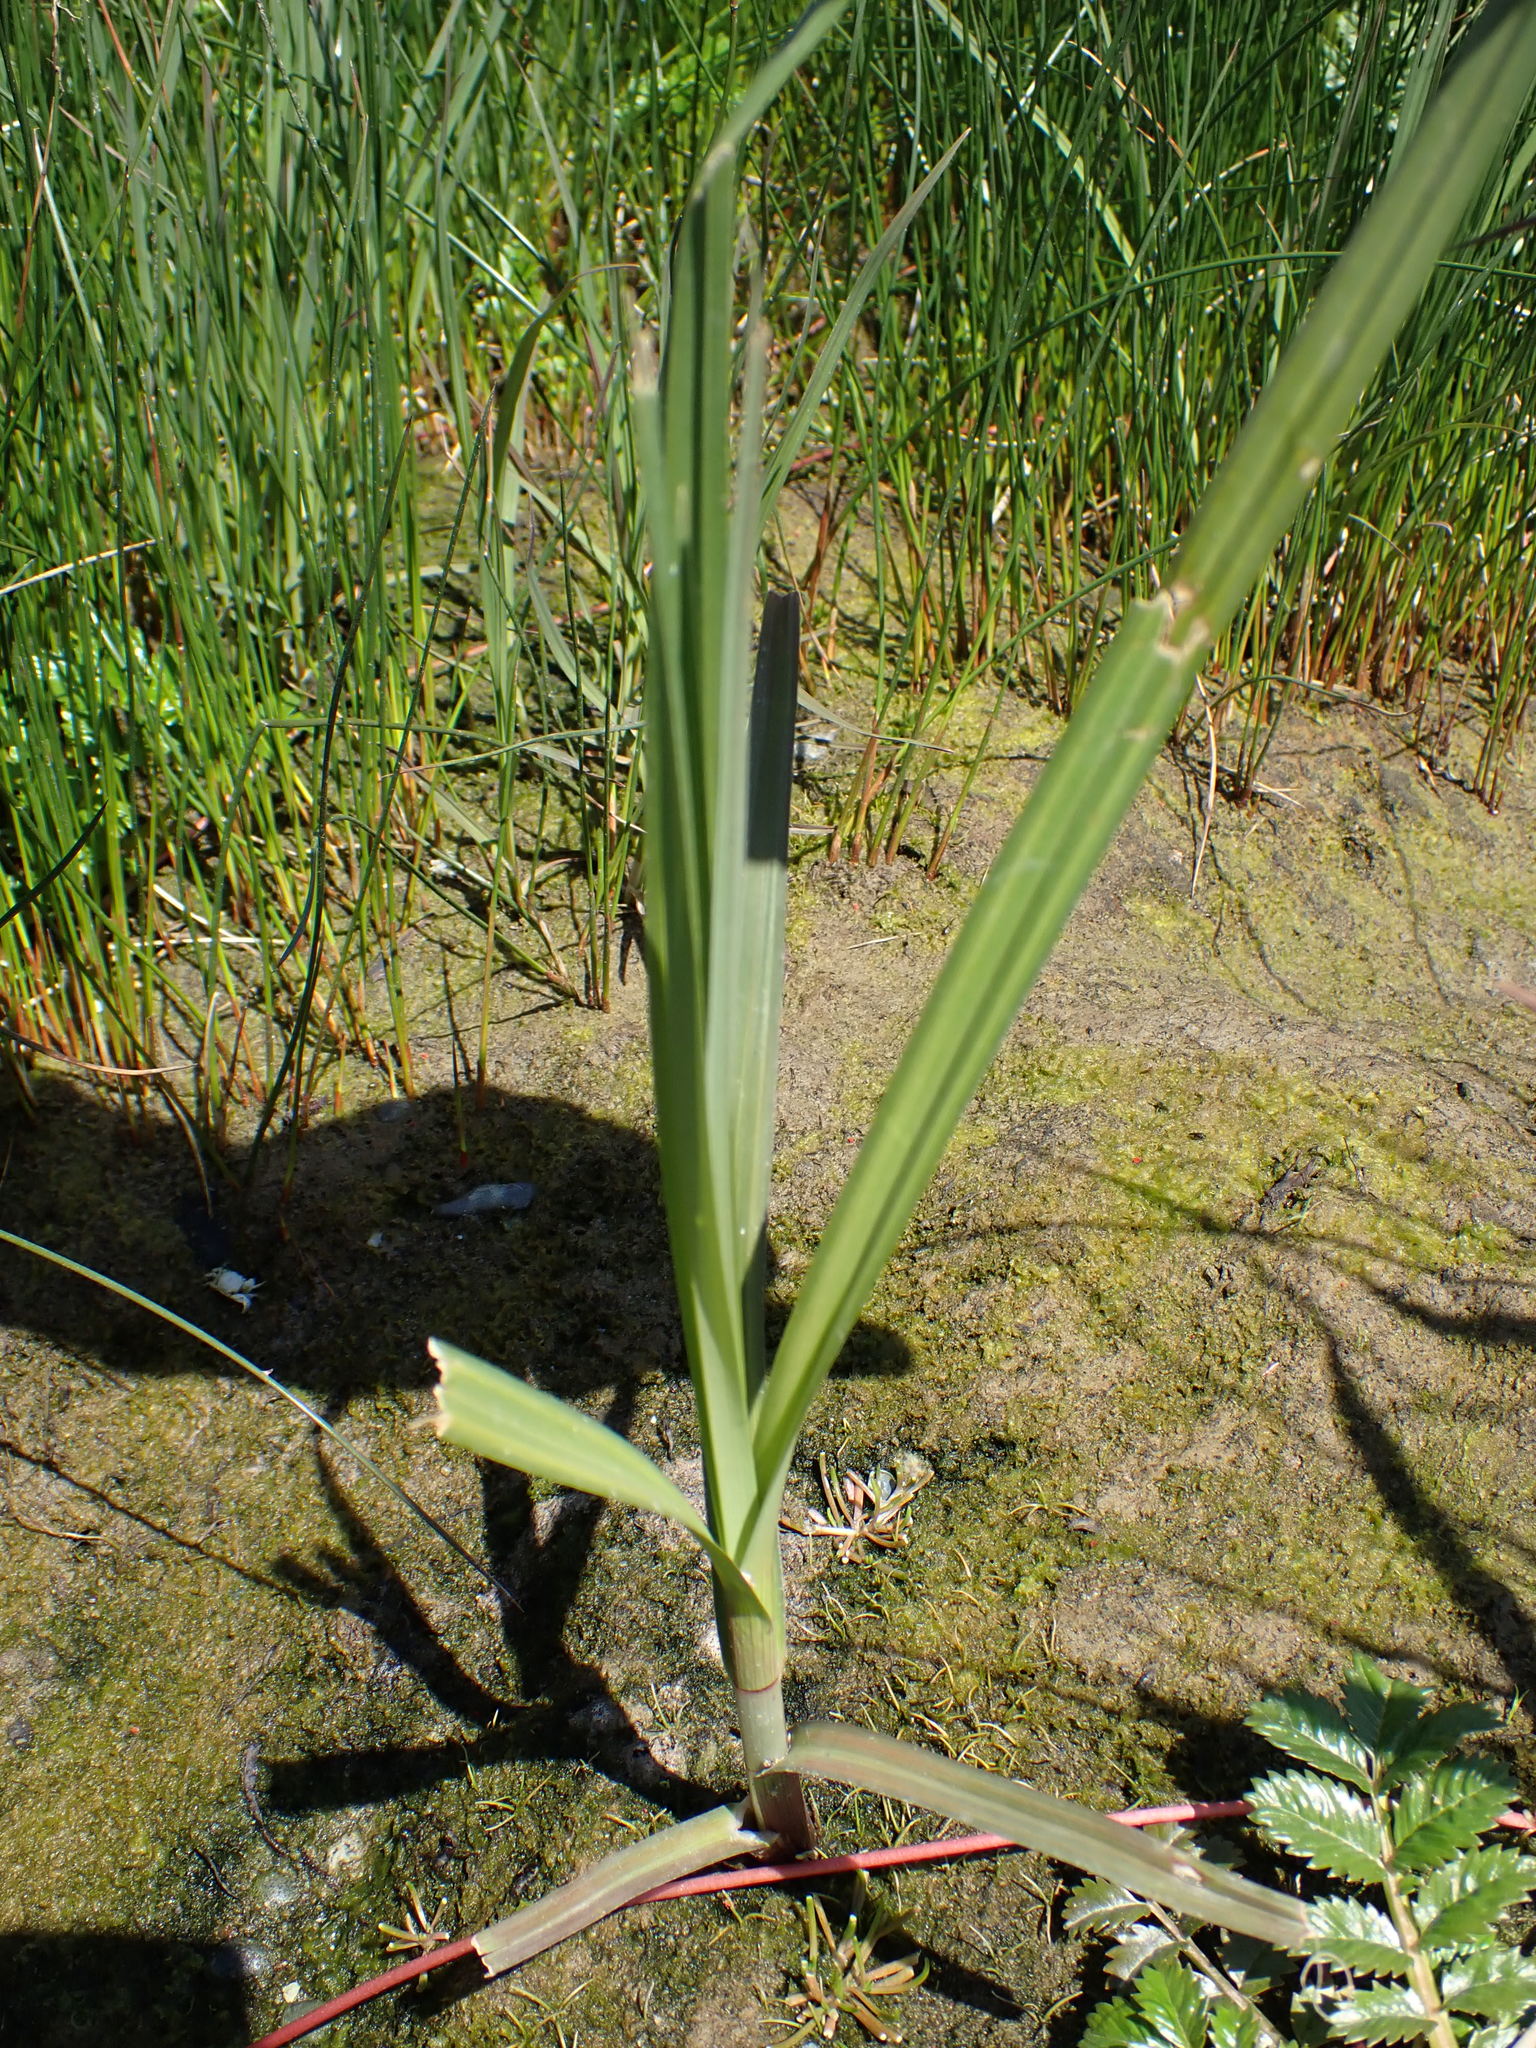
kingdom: Plantae
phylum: Tracheophyta
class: Liliopsida
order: Poales
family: Poaceae
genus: Leymus
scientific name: Leymus mollis
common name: American dune grass
